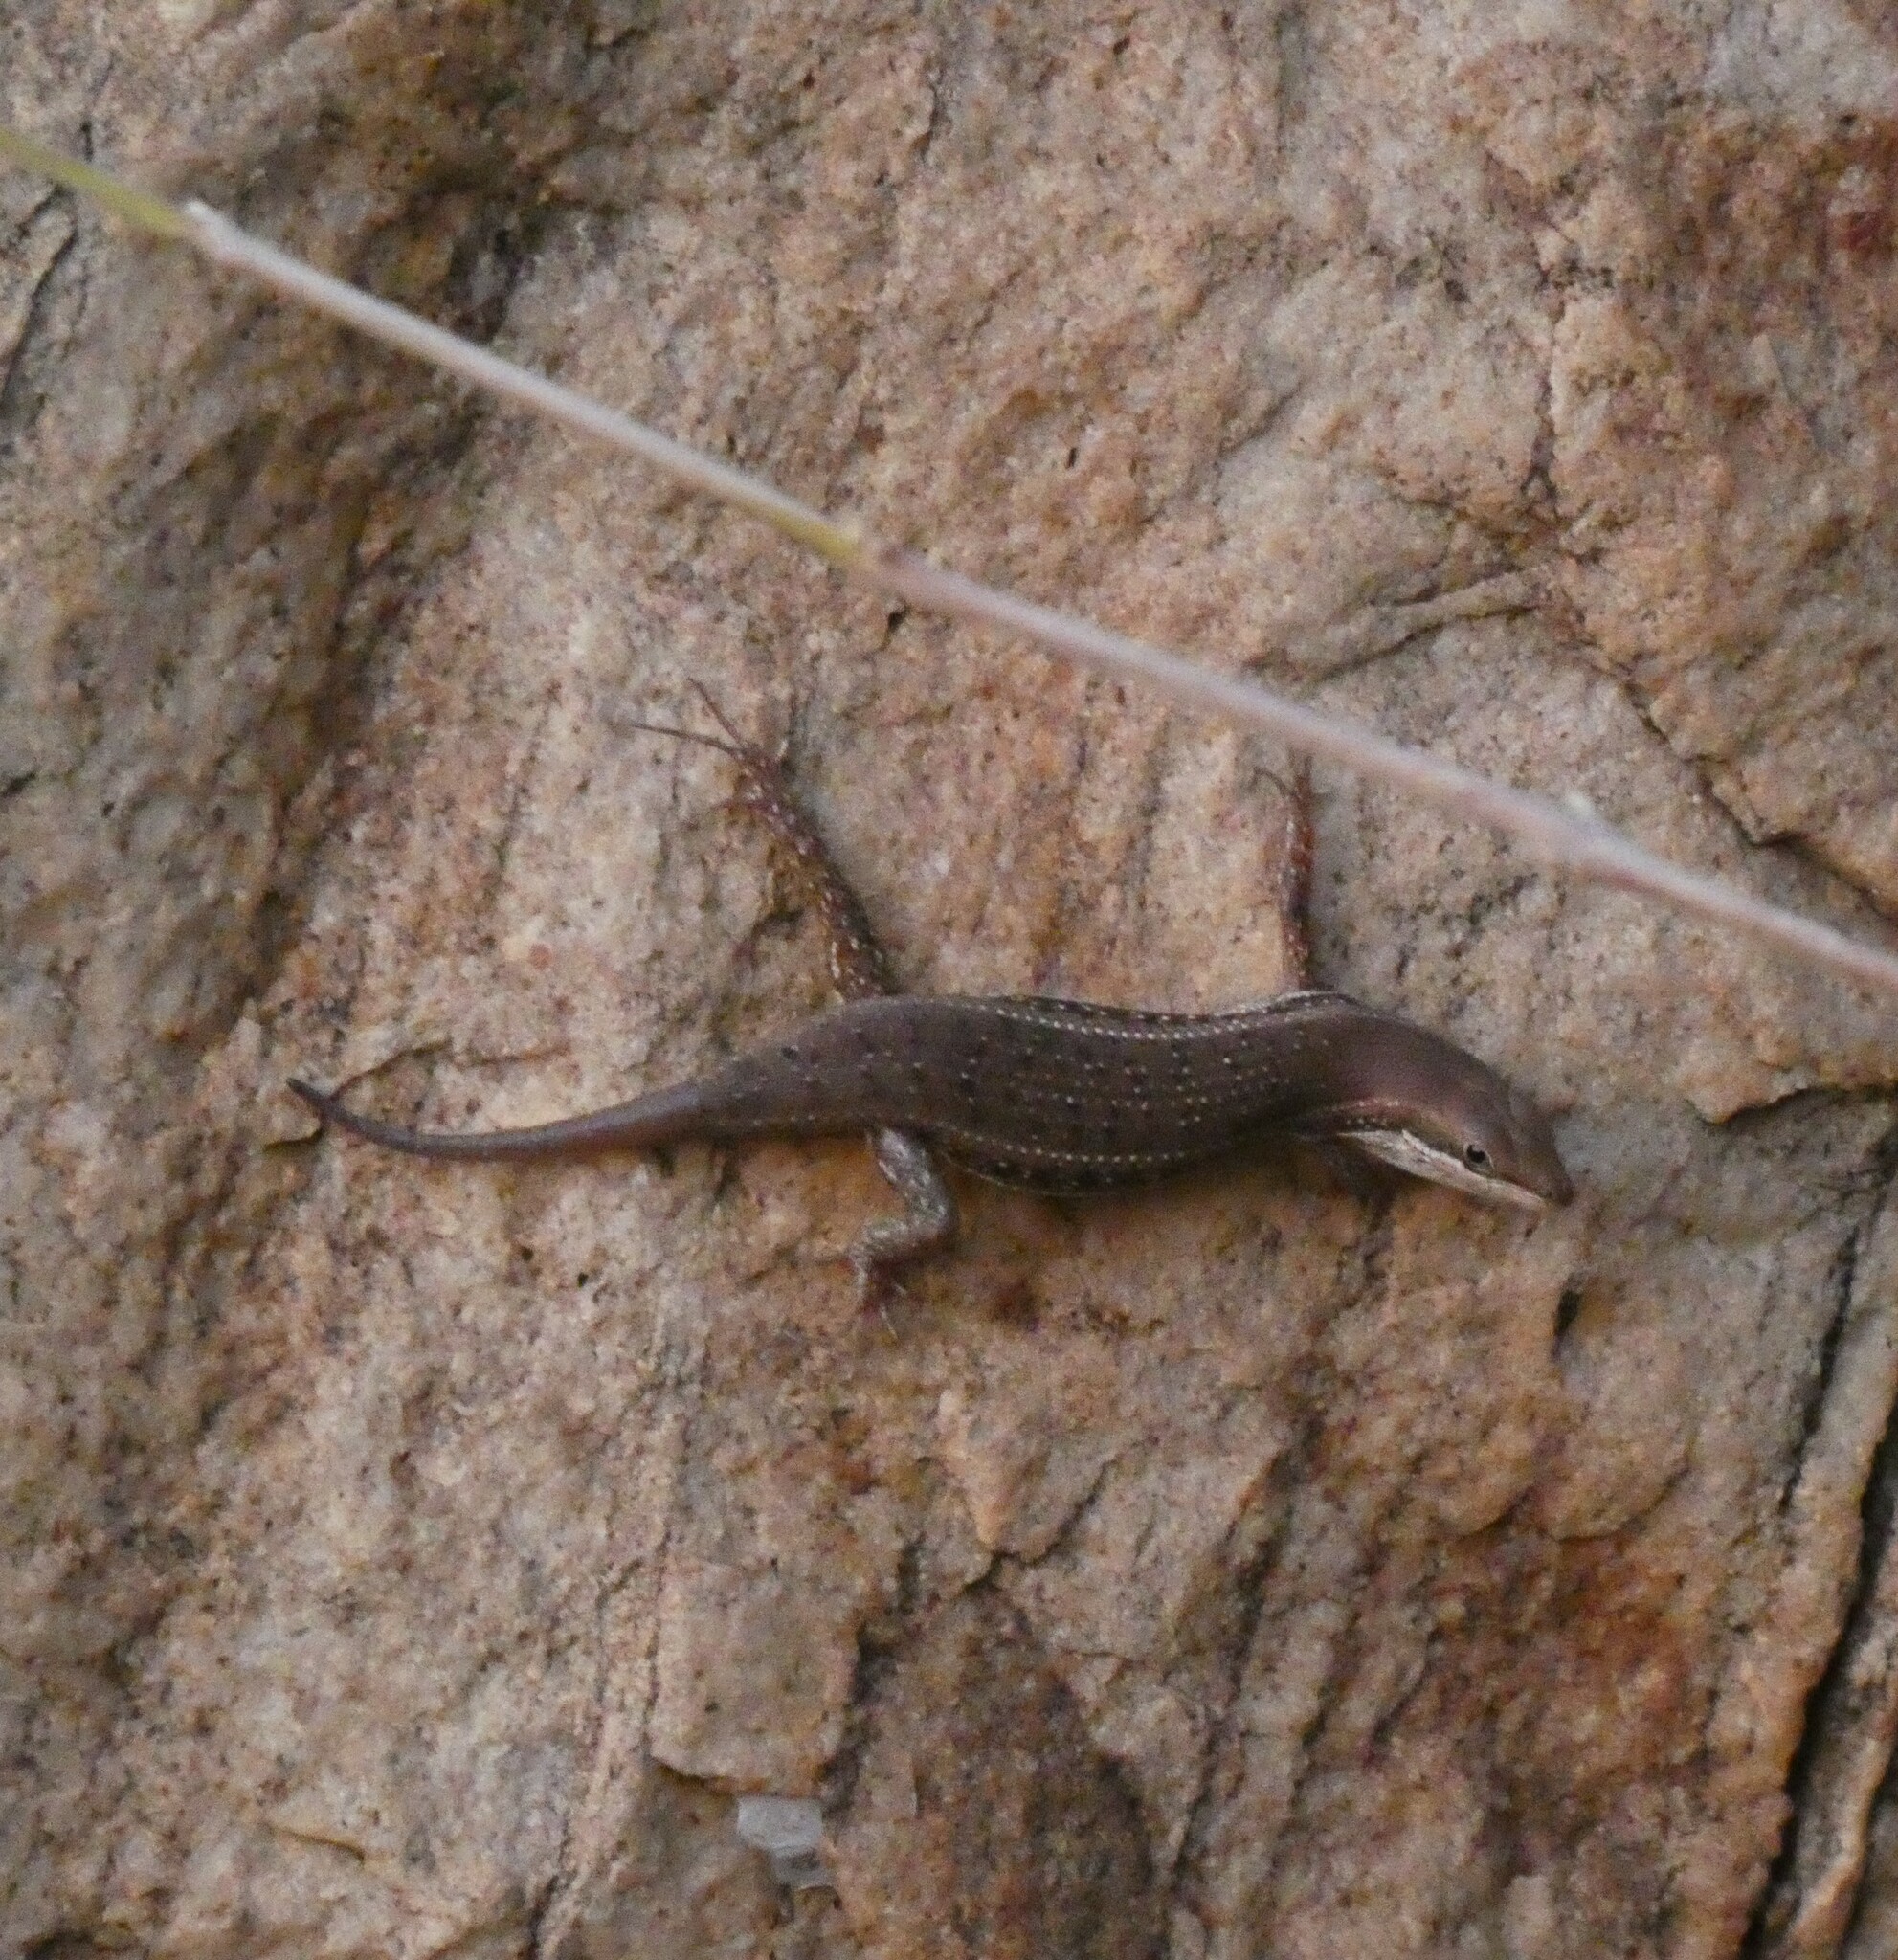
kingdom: Animalia
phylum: Chordata
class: Squamata
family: Scincidae
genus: Trachylepis
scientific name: Trachylepis varia
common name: Eastern variable skink
